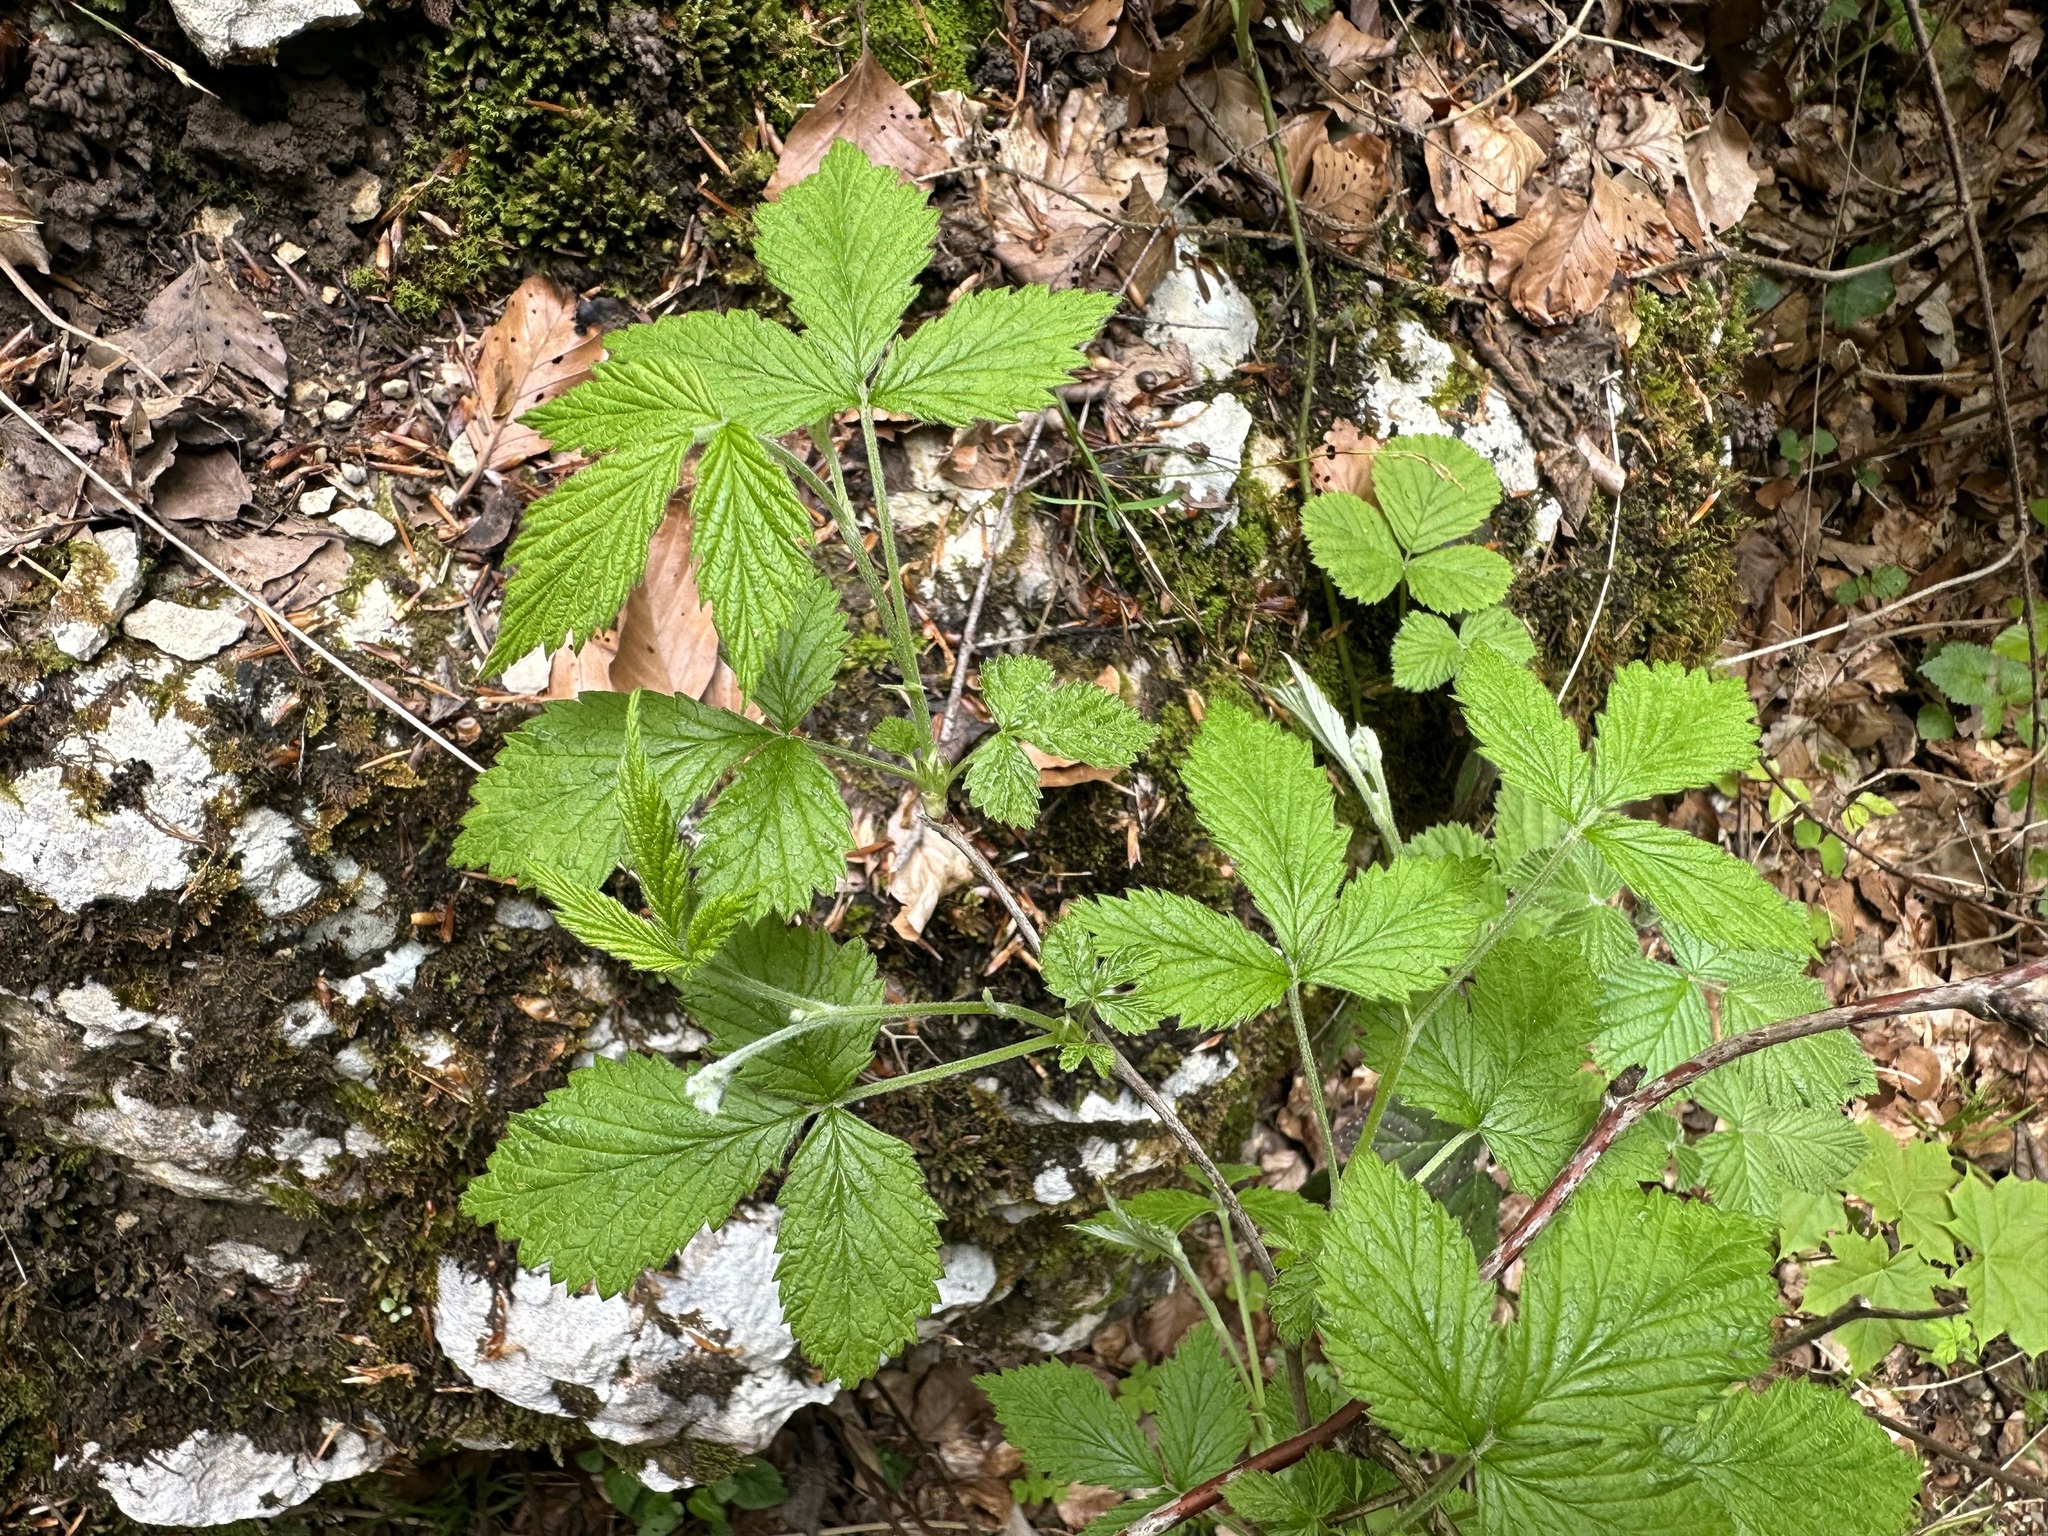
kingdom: Plantae
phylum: Tracheophyta
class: Magnoliopsida
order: Rosales
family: Rosaceae
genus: Rubus
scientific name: Rubus idaeus
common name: Raspberry
